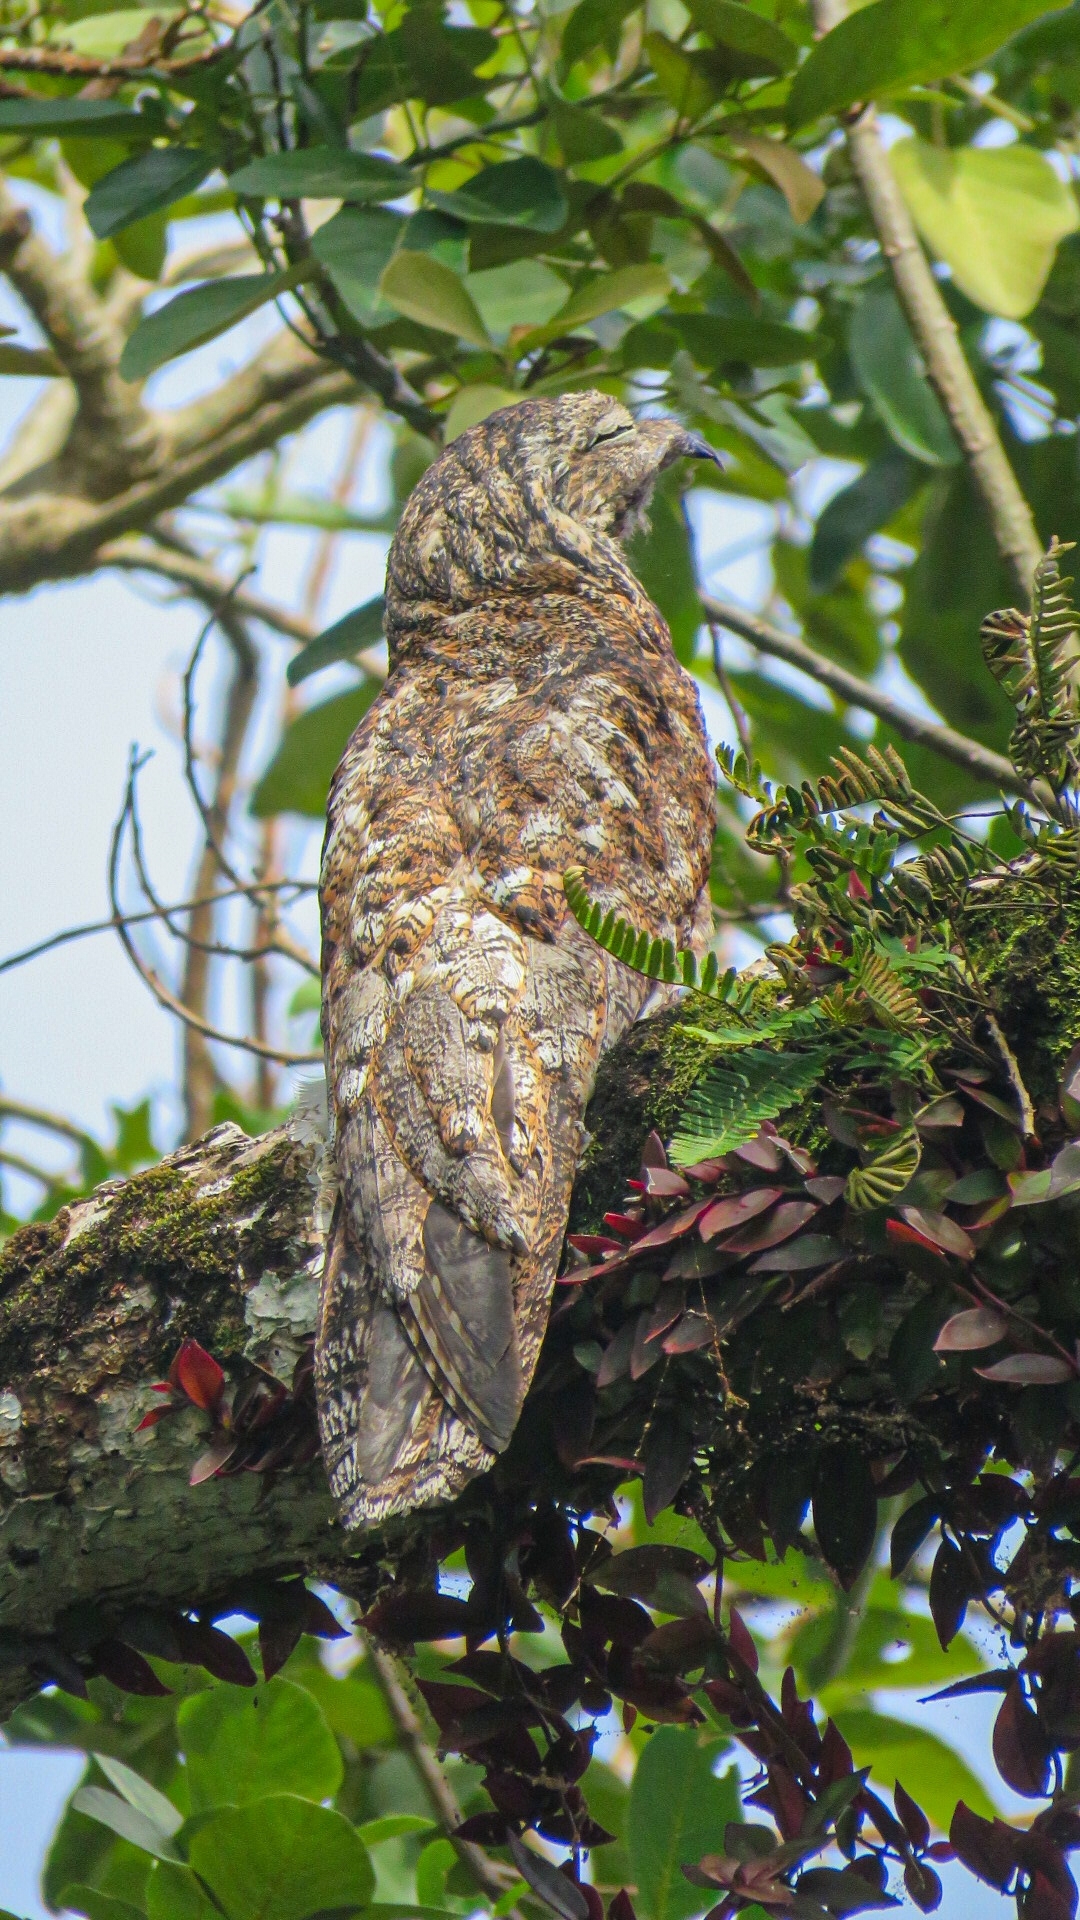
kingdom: Animalia
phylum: Chordata
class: Aves
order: Nyctibiiformes
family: Nyctibiidae
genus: Nyctibius
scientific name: Nyctibius grandis
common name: Great potoo
